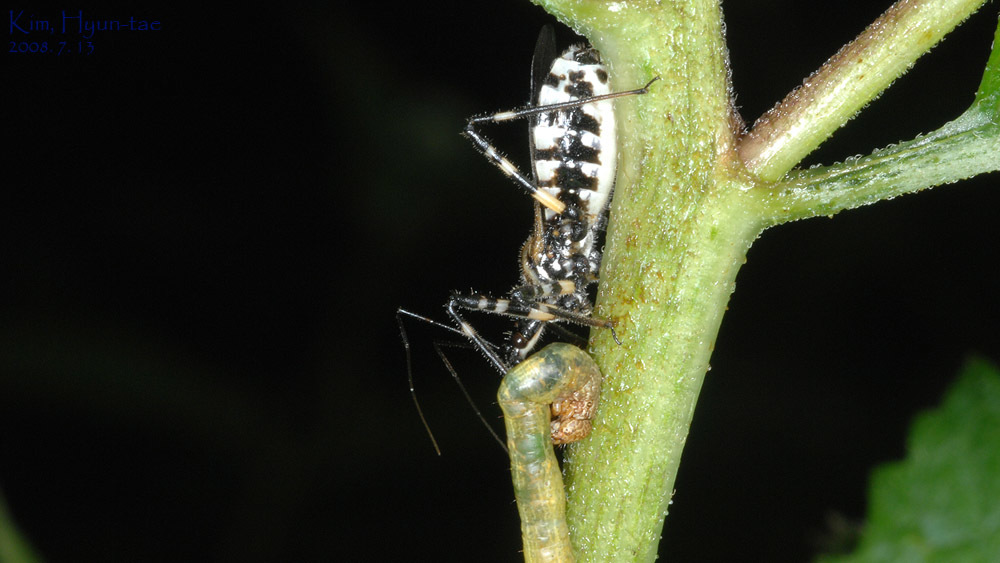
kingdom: Animalia
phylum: Arthropoda
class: Insecta
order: Hemiptera
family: Reduviidae
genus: Sphedanolestes
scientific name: Sphedanolestes impressicollis
